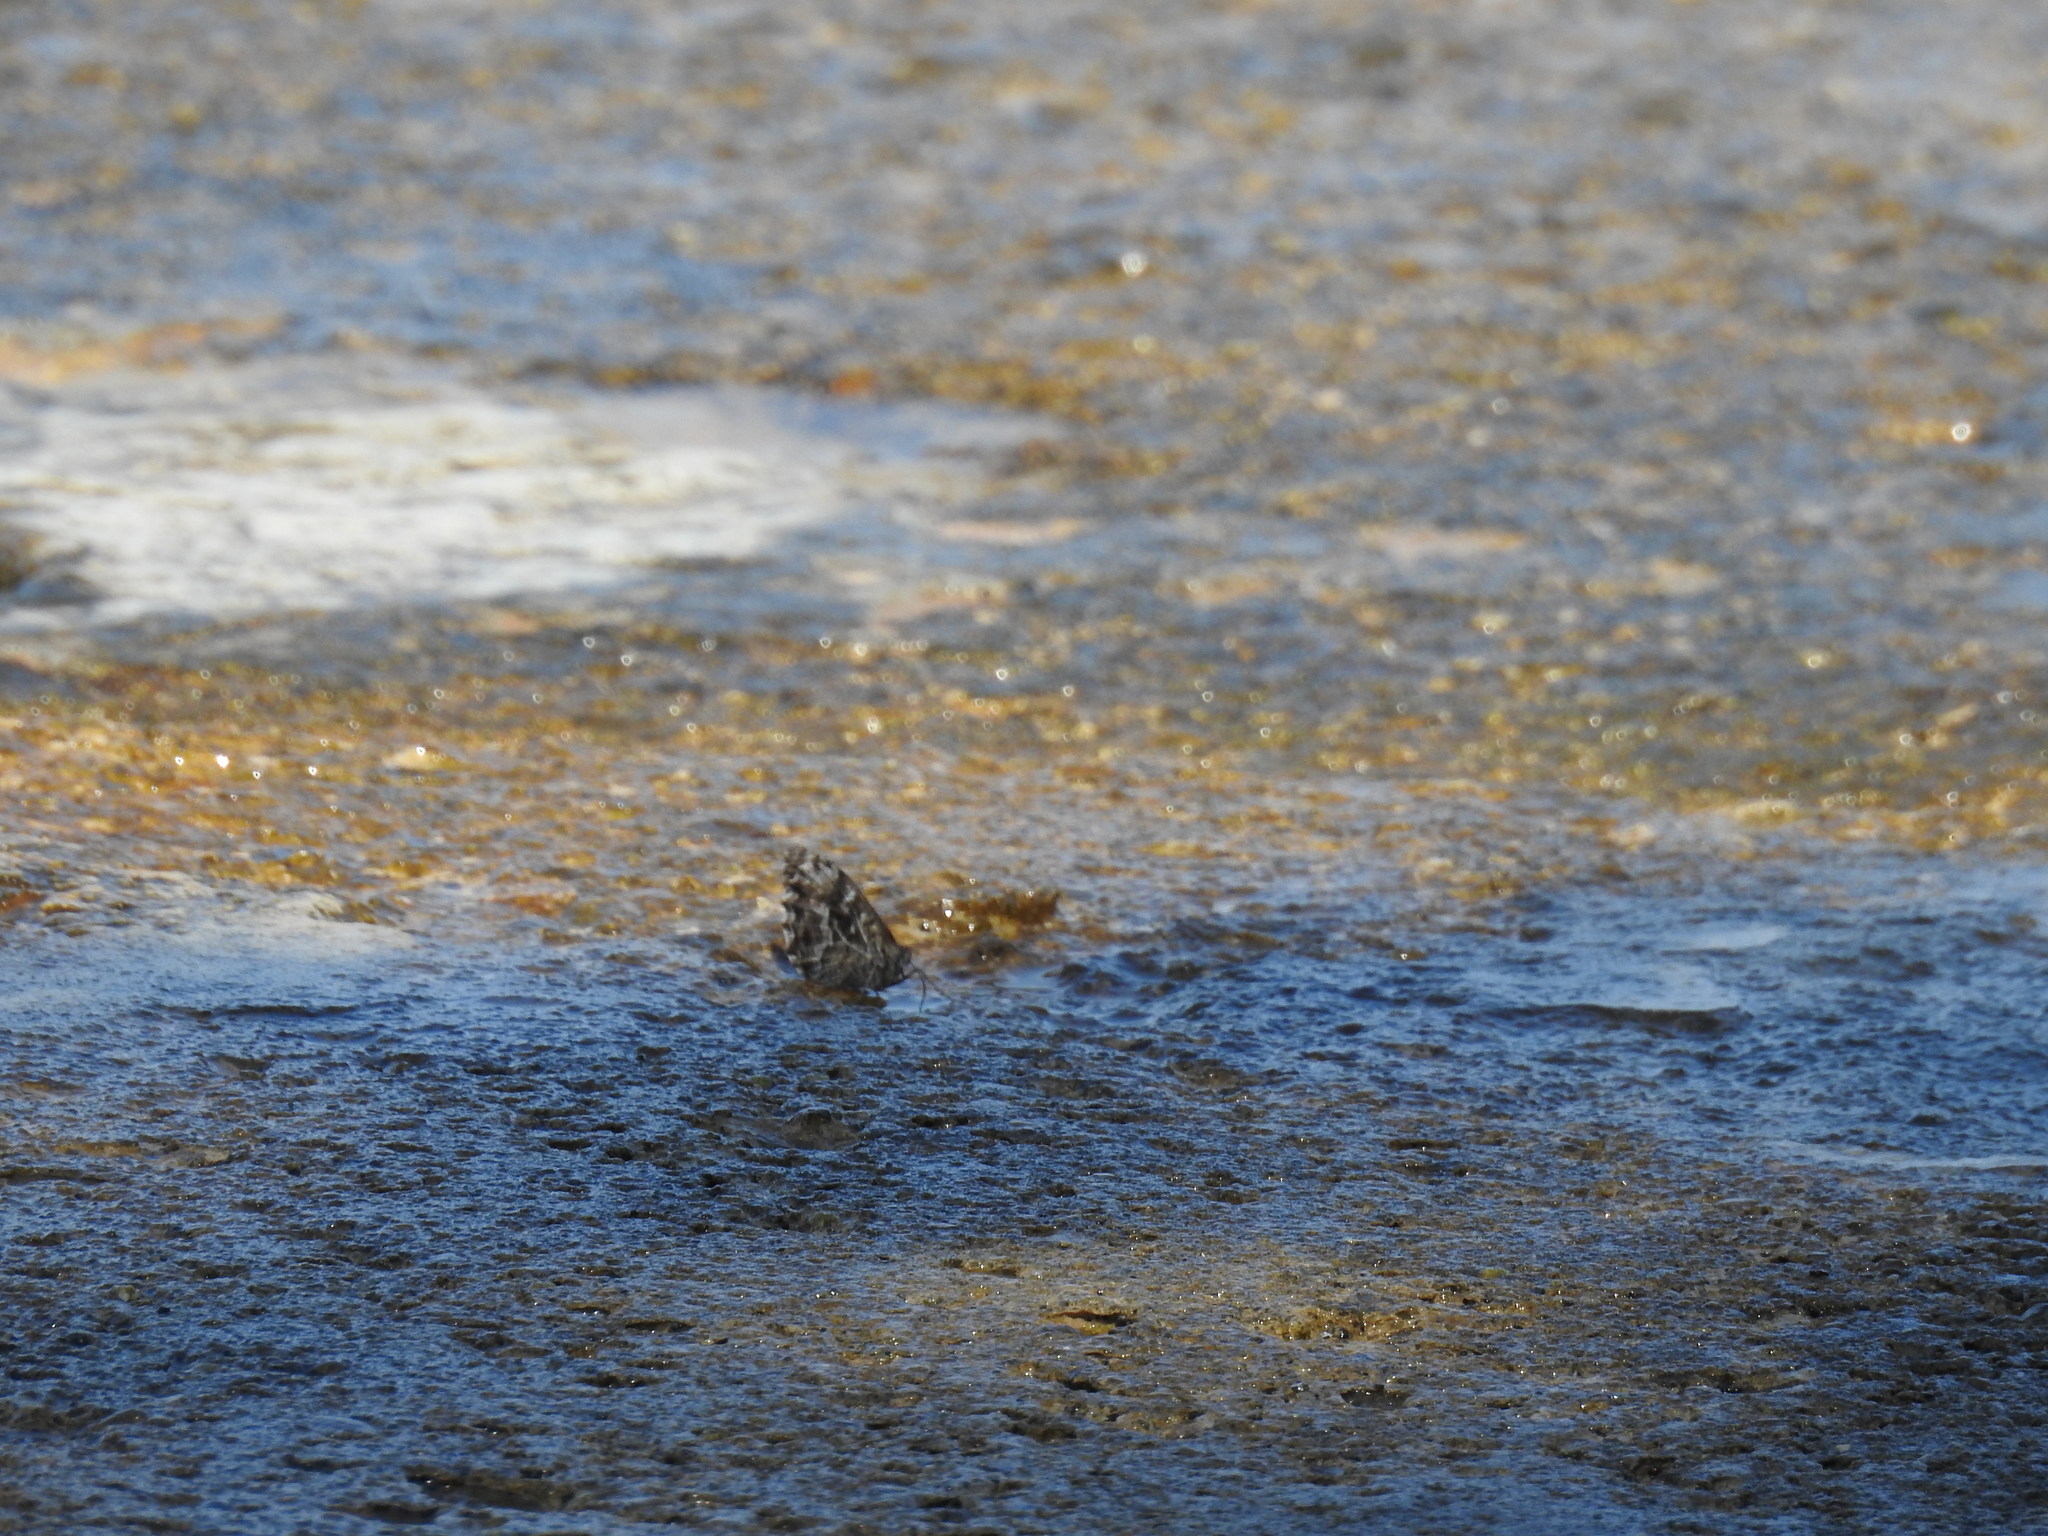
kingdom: Animalia
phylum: Arthropoda
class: Insecta
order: Lepidoptera
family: Nymphalidae
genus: Hipparchia
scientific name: Hipparchia semele
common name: Grayling
